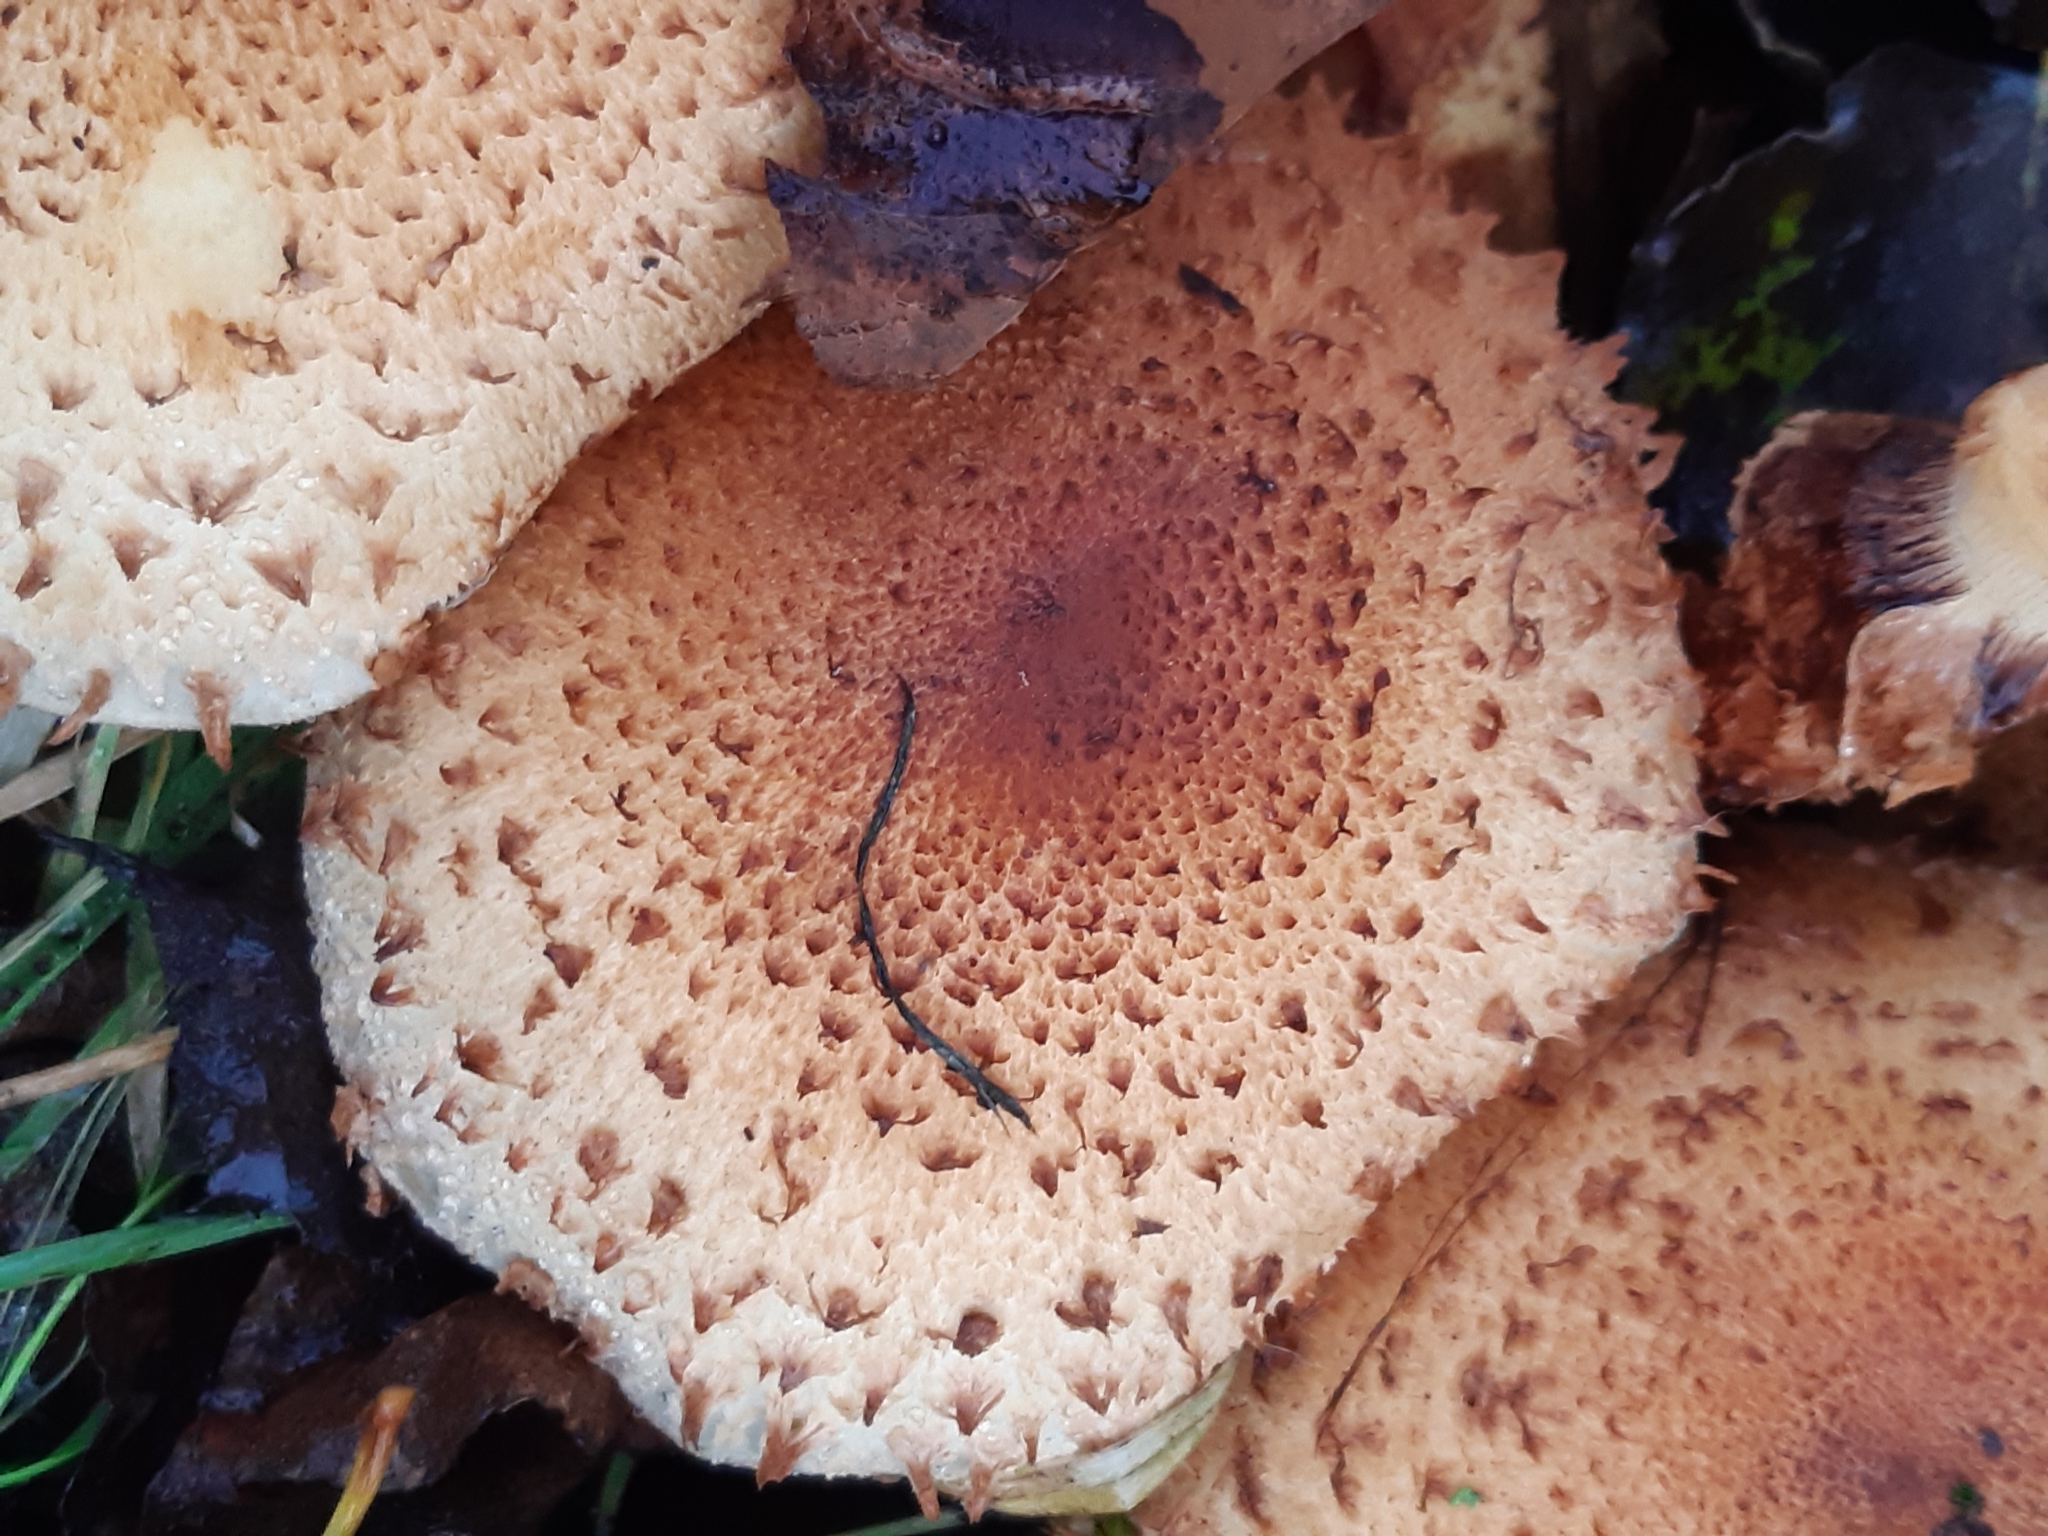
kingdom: Fungi
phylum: Basidiomycota
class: Agaricomycetes
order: Agaricales
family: Strophariaceae
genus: Pholiota
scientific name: Pholiota squarrosa
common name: Shaggy pholiota
